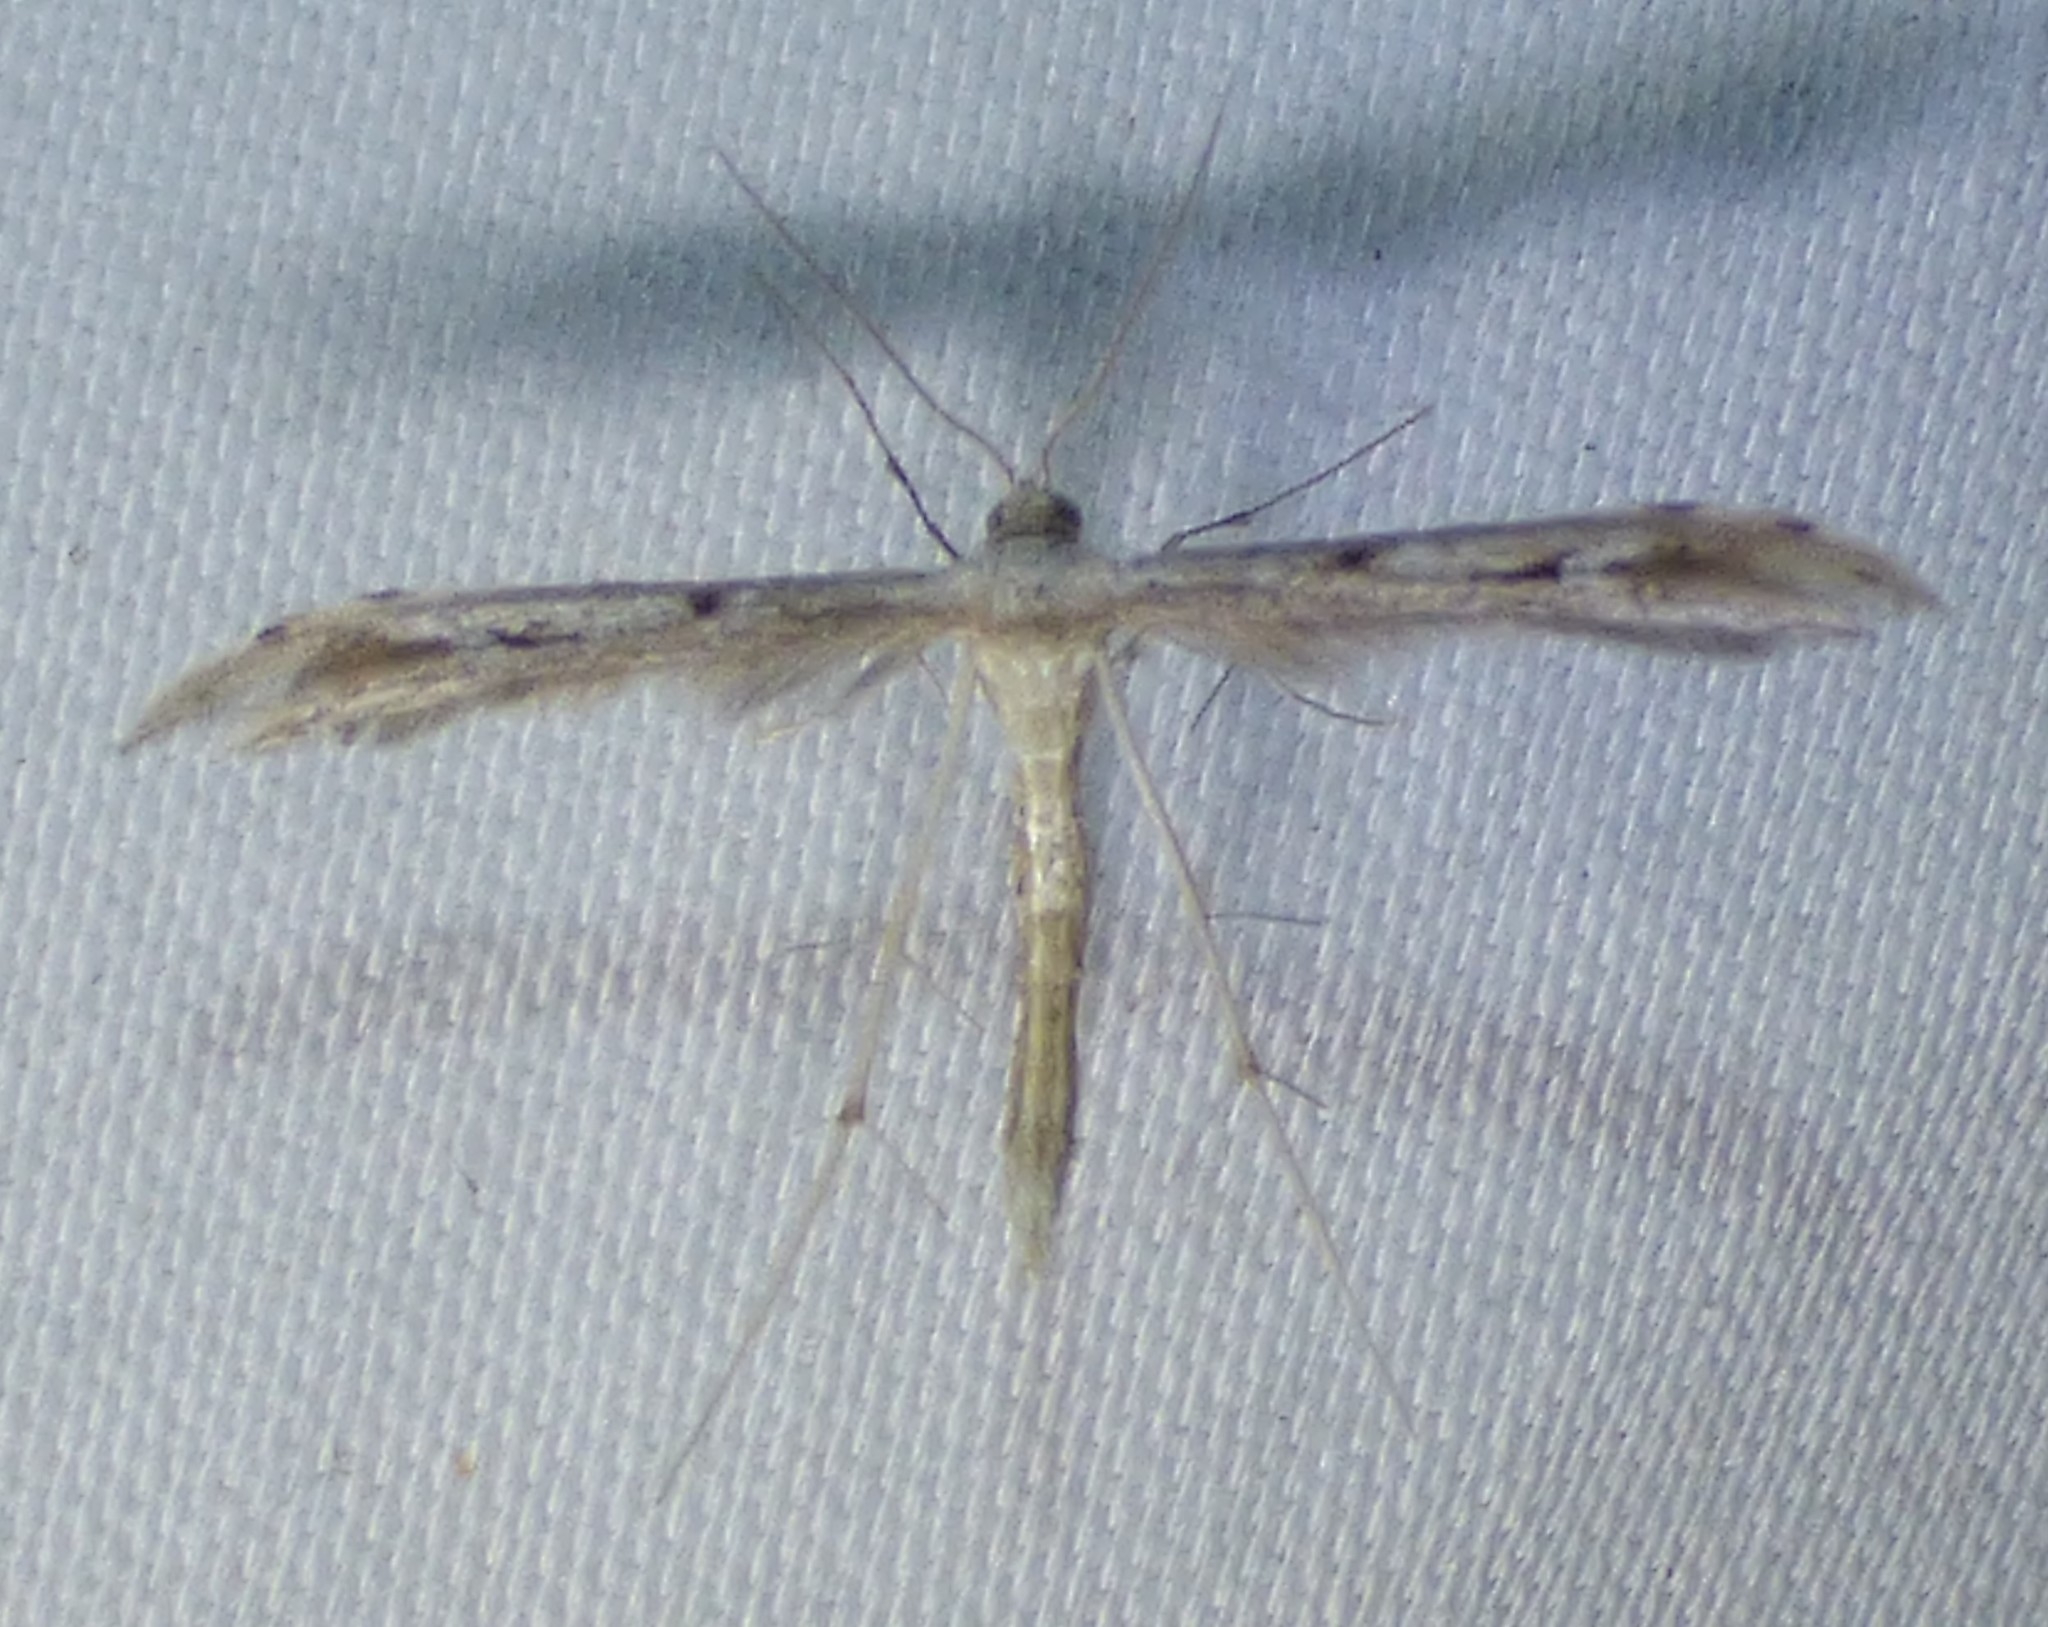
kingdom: Animalia
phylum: Arthropoda
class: Insecta
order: Lepidoptera
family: Pterophoridae
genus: Pselnophorus
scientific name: Pselnophorus belfragei
